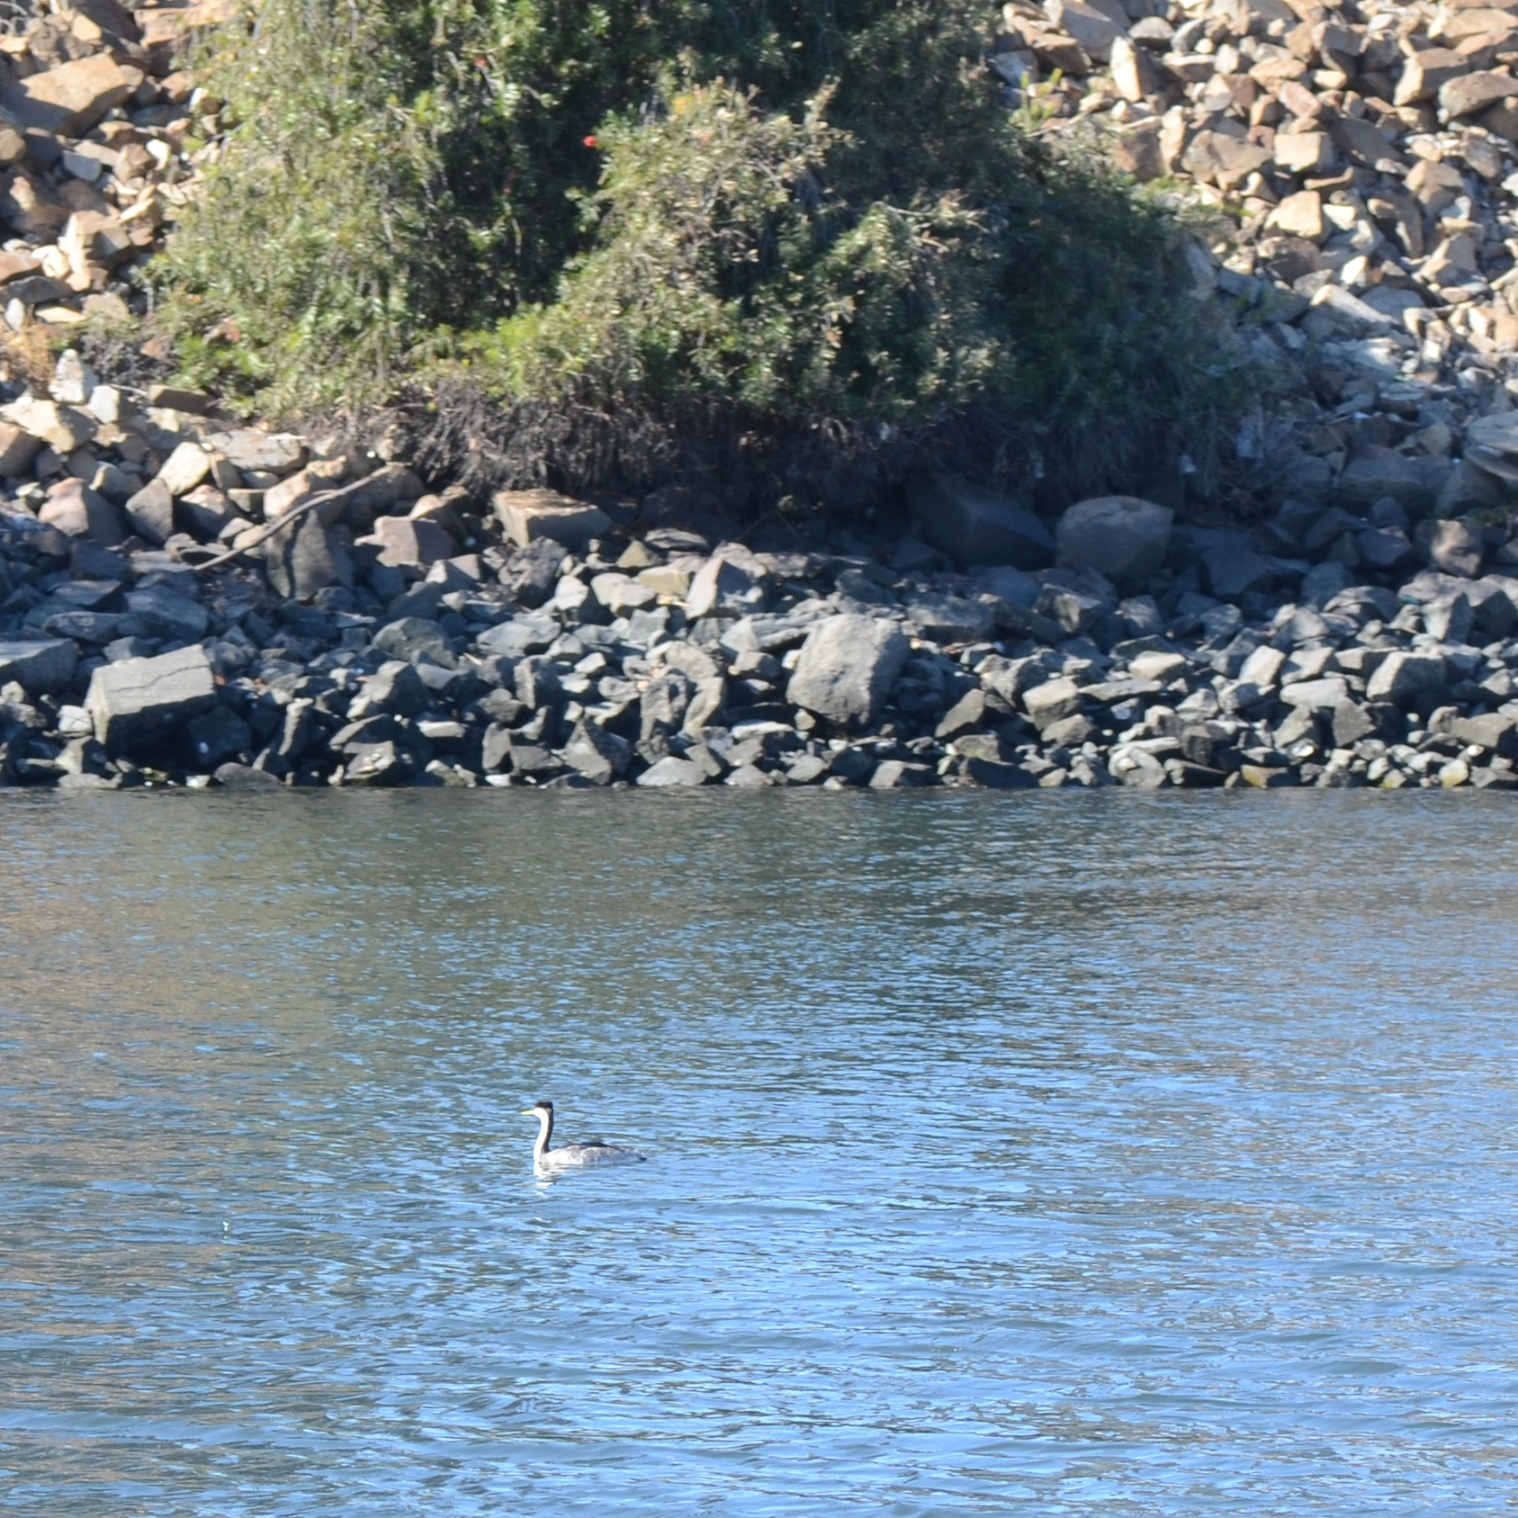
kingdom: Animalia
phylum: Chordata
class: Aves
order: Podicipediformes
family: Podicipedidae
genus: Aechmophorus
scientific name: Aechmophorus occidentalis
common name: Western grebe
